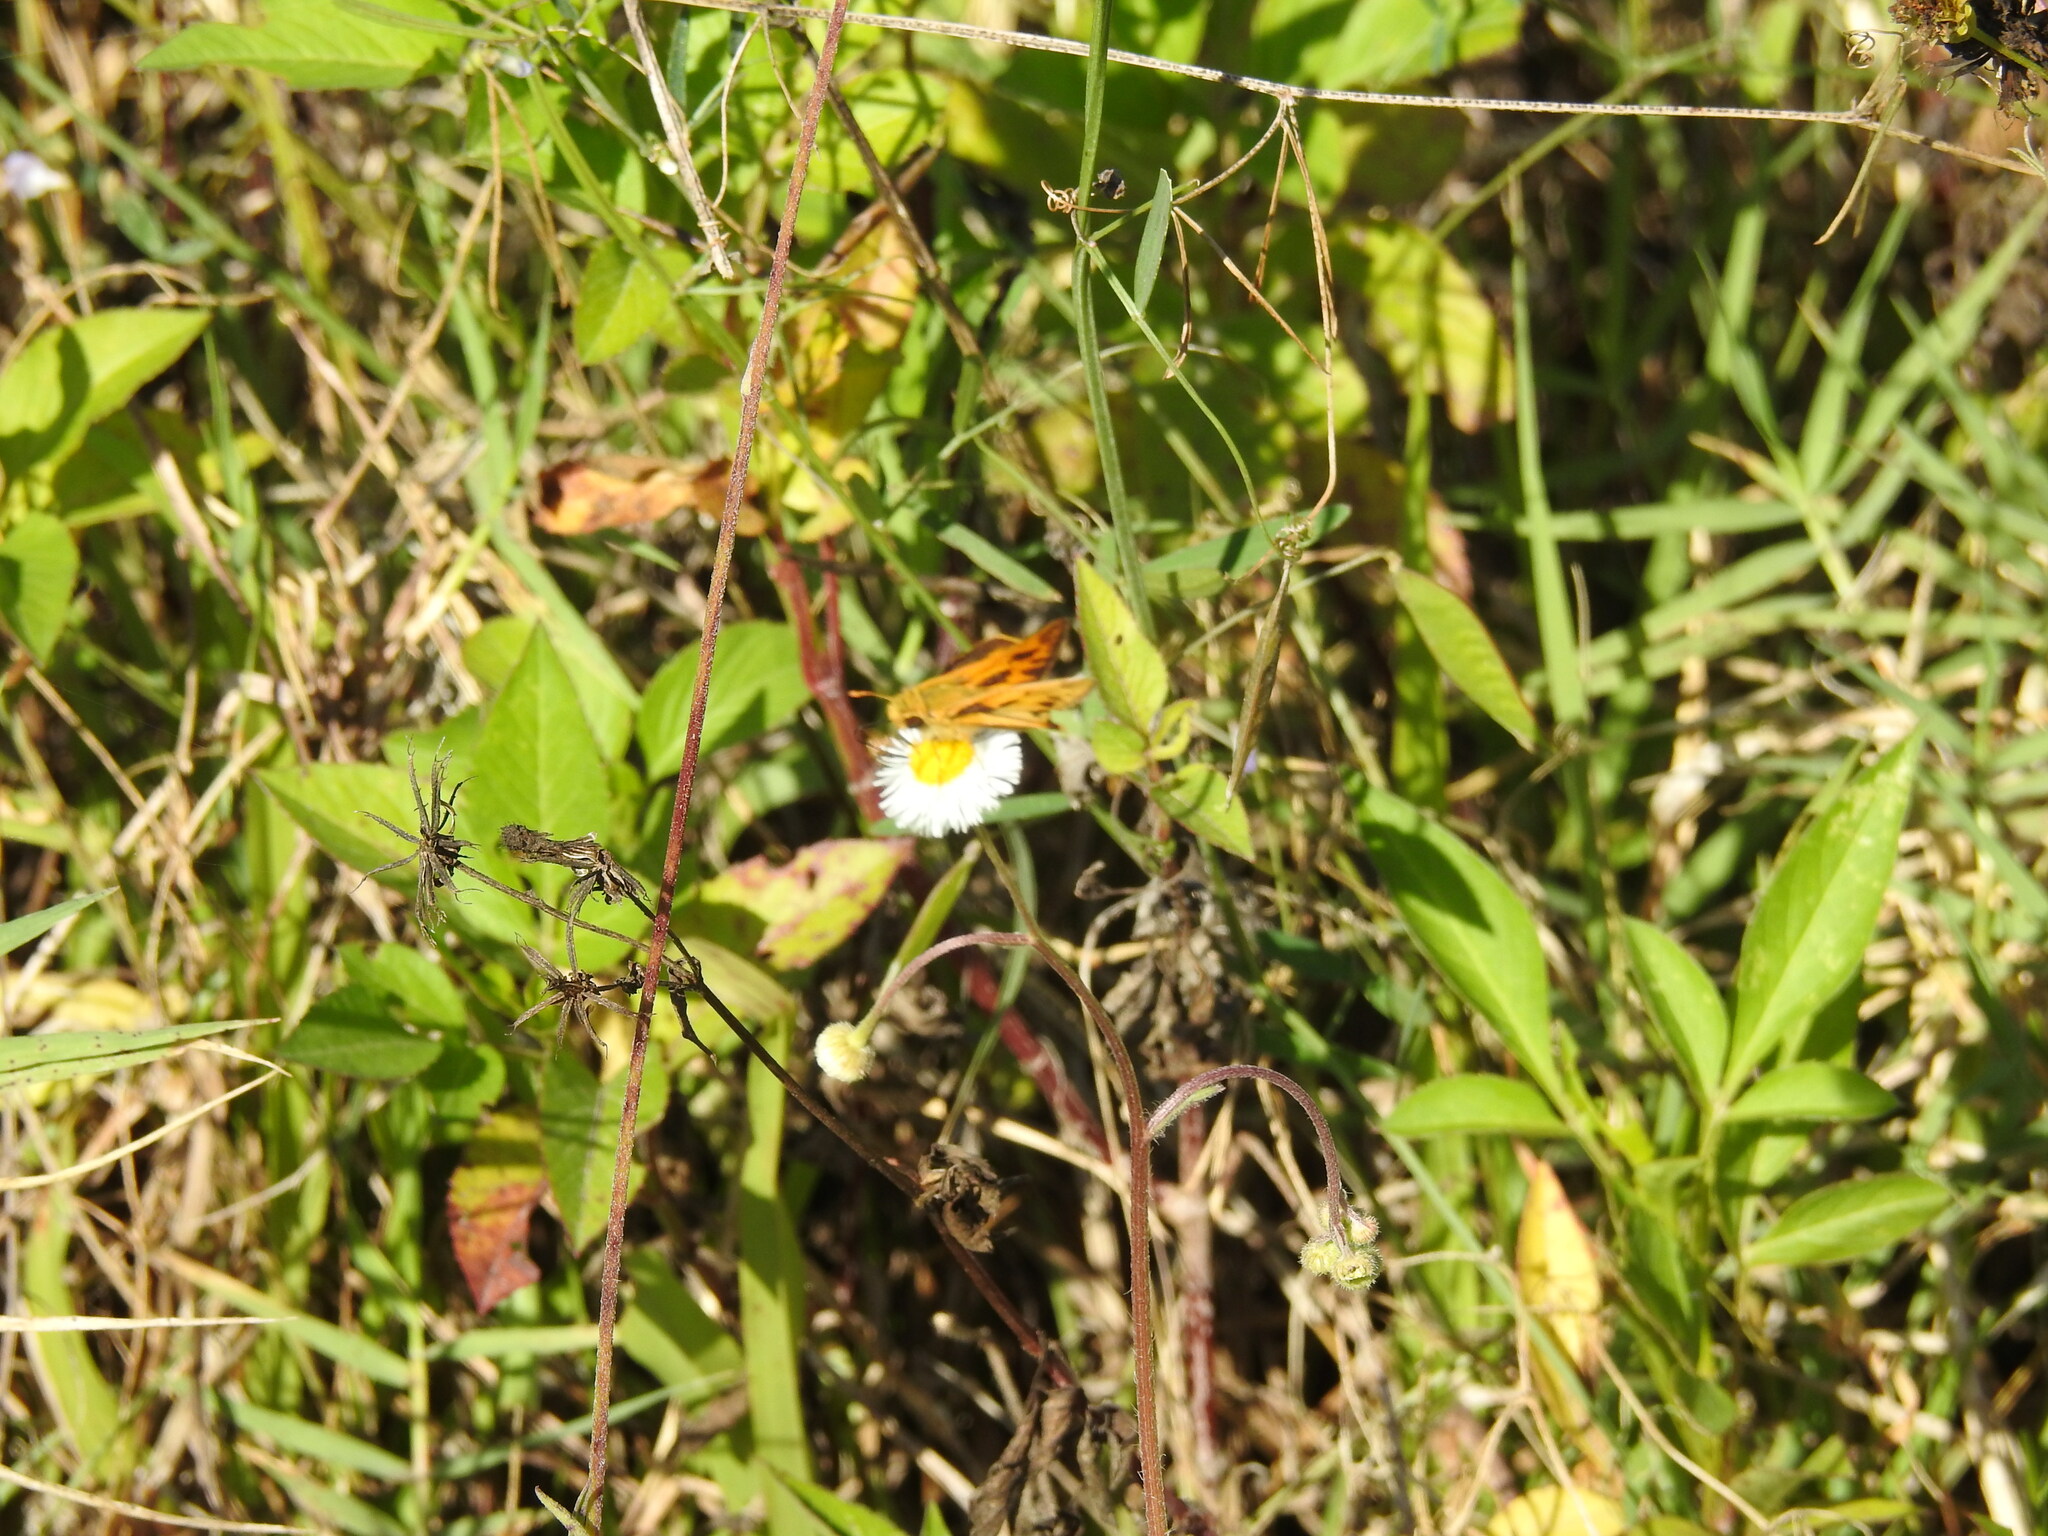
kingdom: Animalia
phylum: Arthropoda
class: Insecta
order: Lepidoptera
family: Hesperiidae
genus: Hylephila
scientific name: Hylephila phyleus
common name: Fiery skipper
